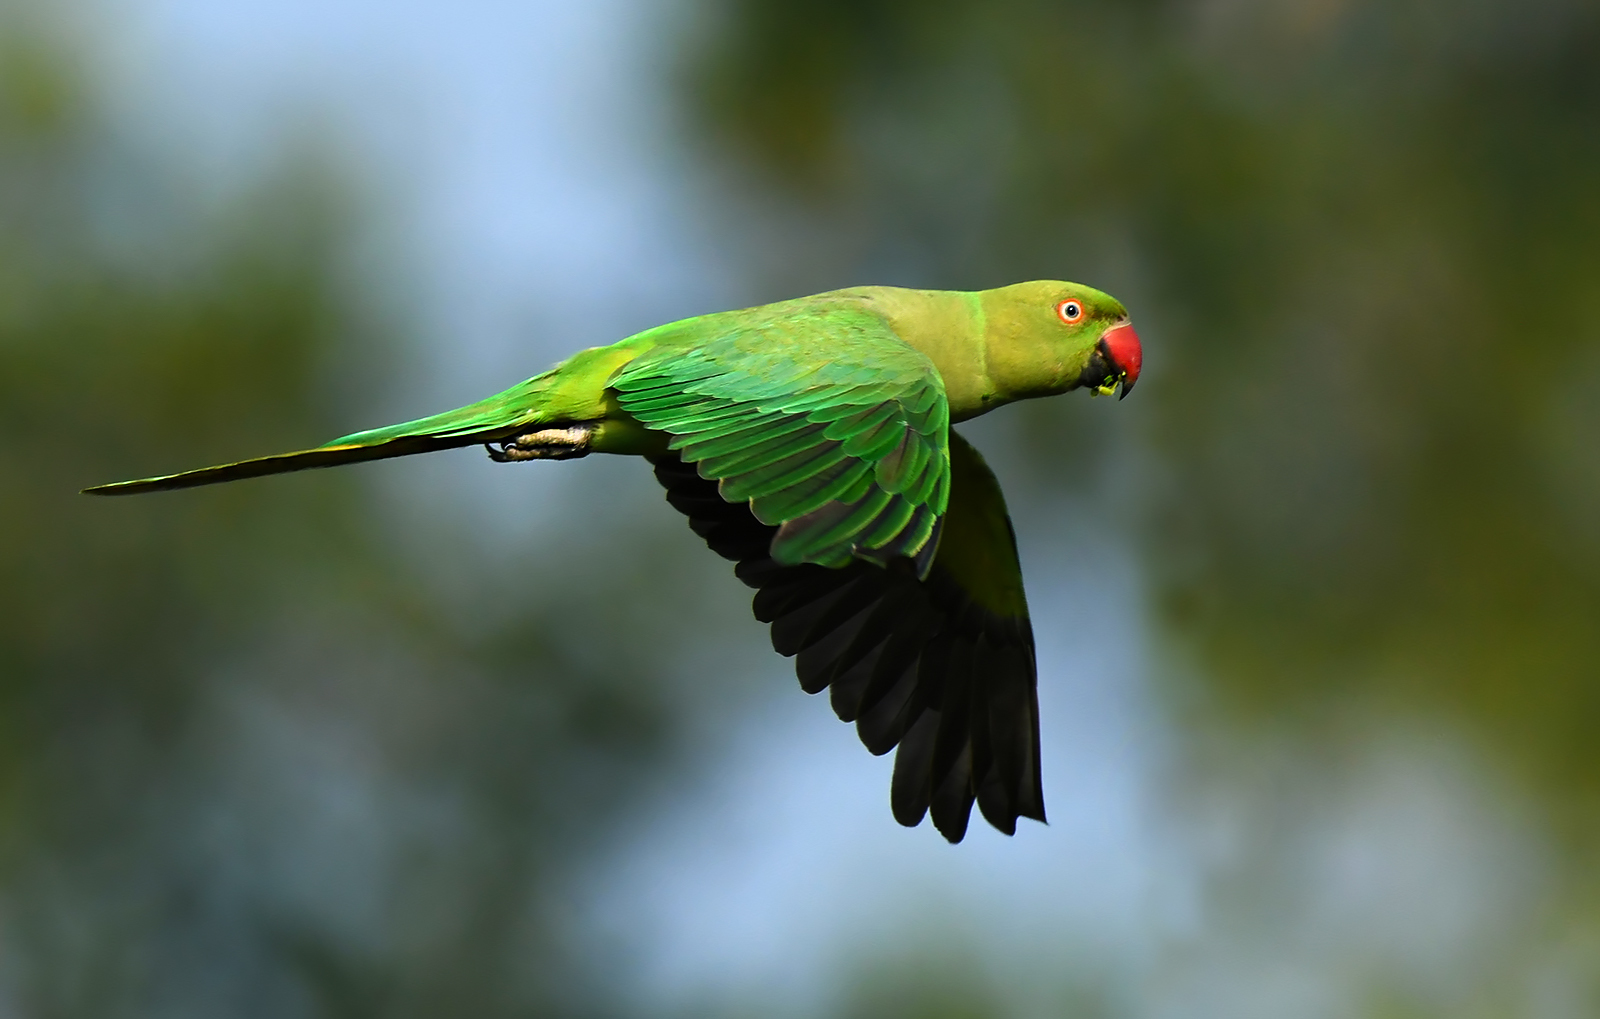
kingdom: Animalia
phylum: Chordata
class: Aves
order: Psittaciformes
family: Psittacidae
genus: Psittacula
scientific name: Psittacula krameri
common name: Rose-ringed parakeet
